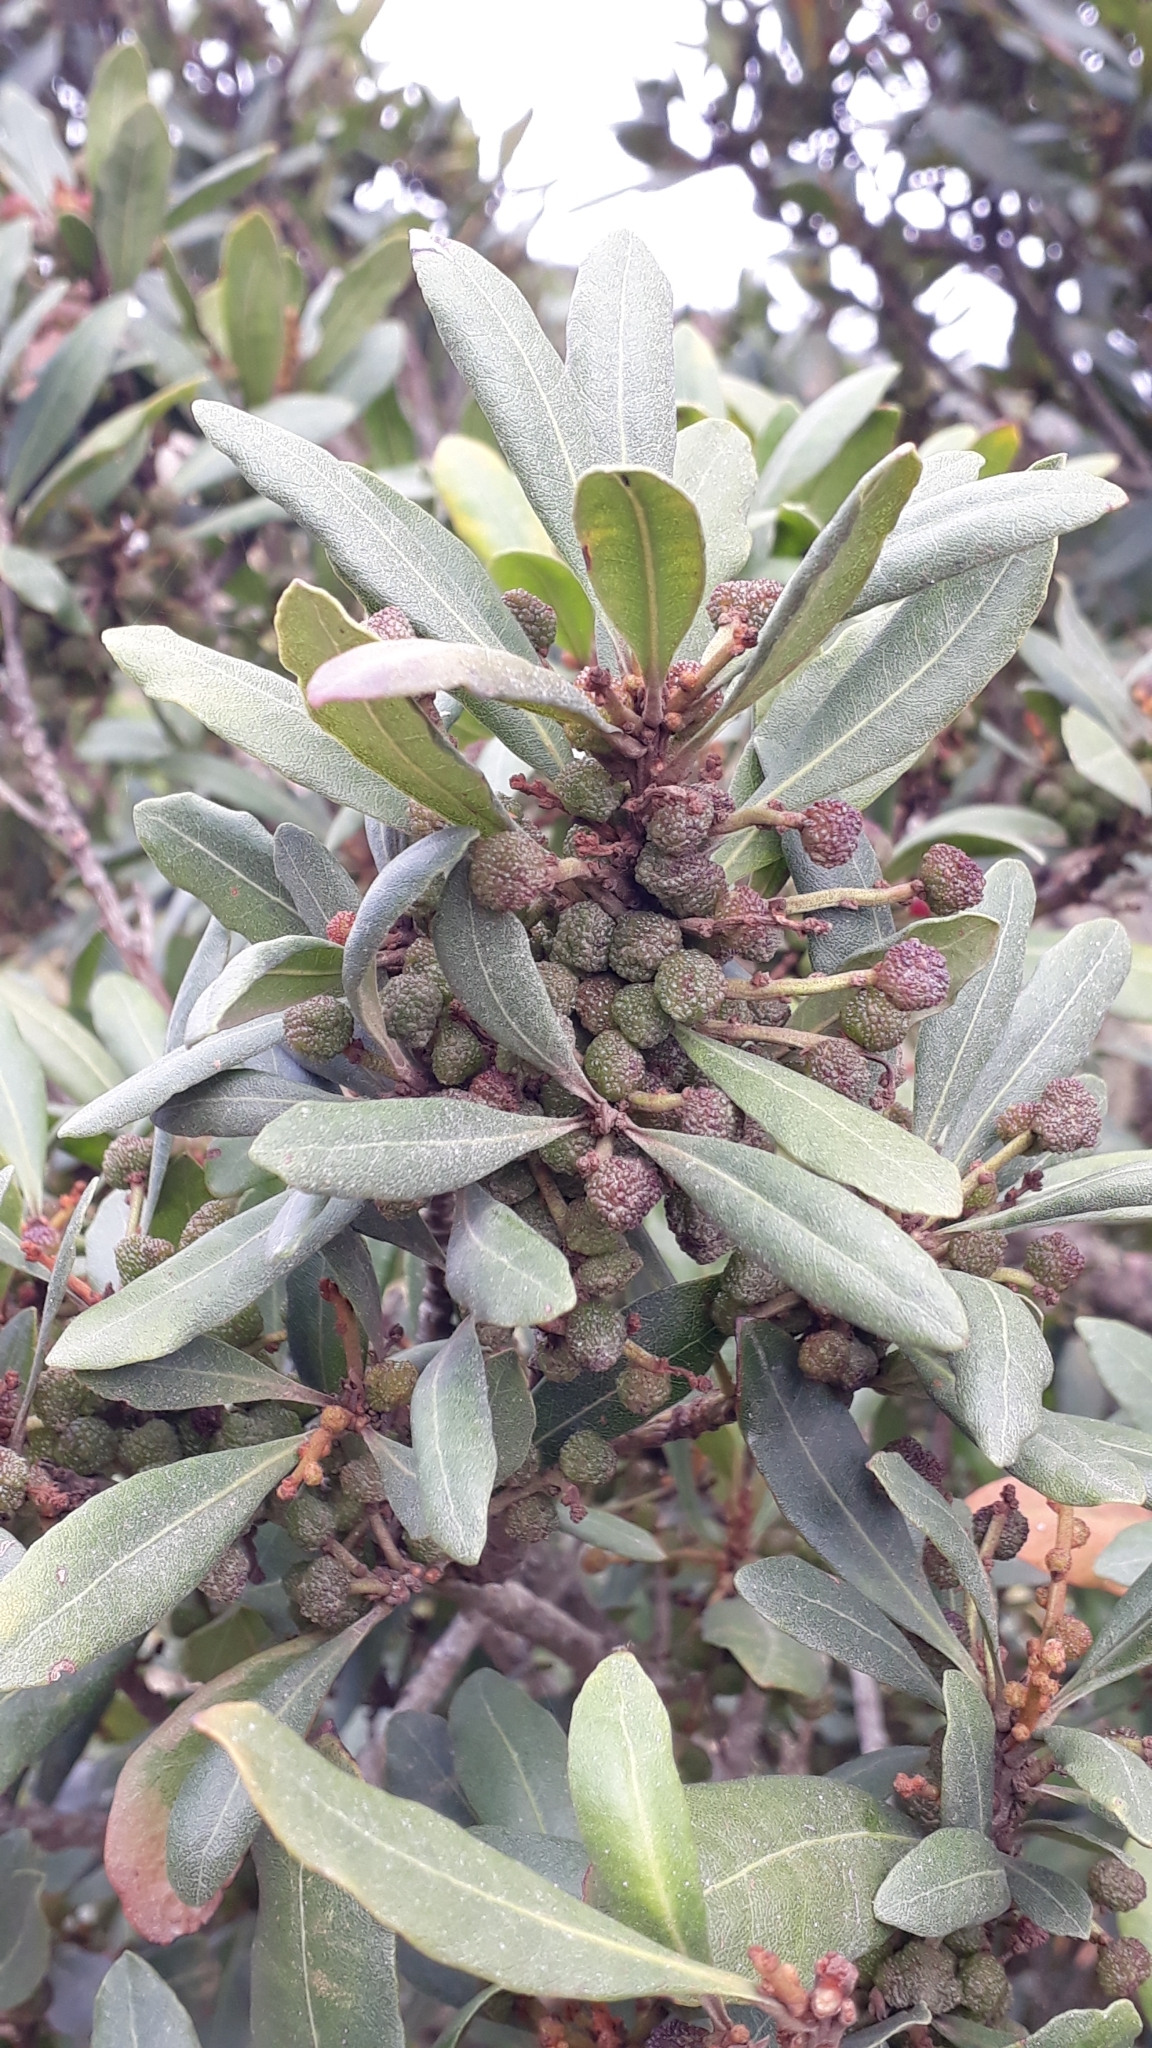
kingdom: Plantae
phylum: Tracheophyta
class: Magnoliopsida
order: Fagales
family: Myricaceae
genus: Morella
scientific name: Morella faya
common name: Firetree
